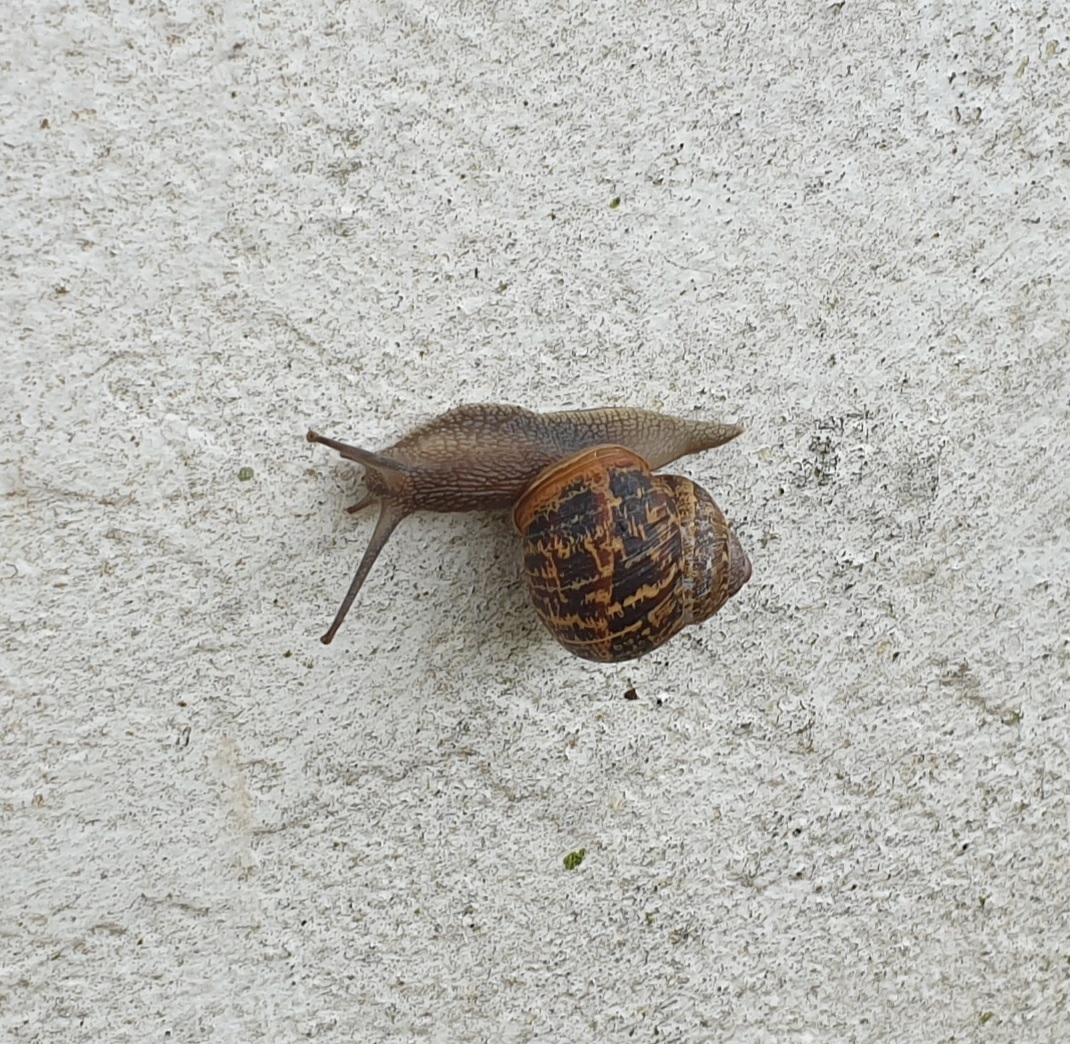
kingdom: Animalia
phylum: Mollusca
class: Gastropoda
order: Stylommatophora
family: Helicidae
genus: Cornu
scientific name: Cornu aspersum
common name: Brown garden snail
